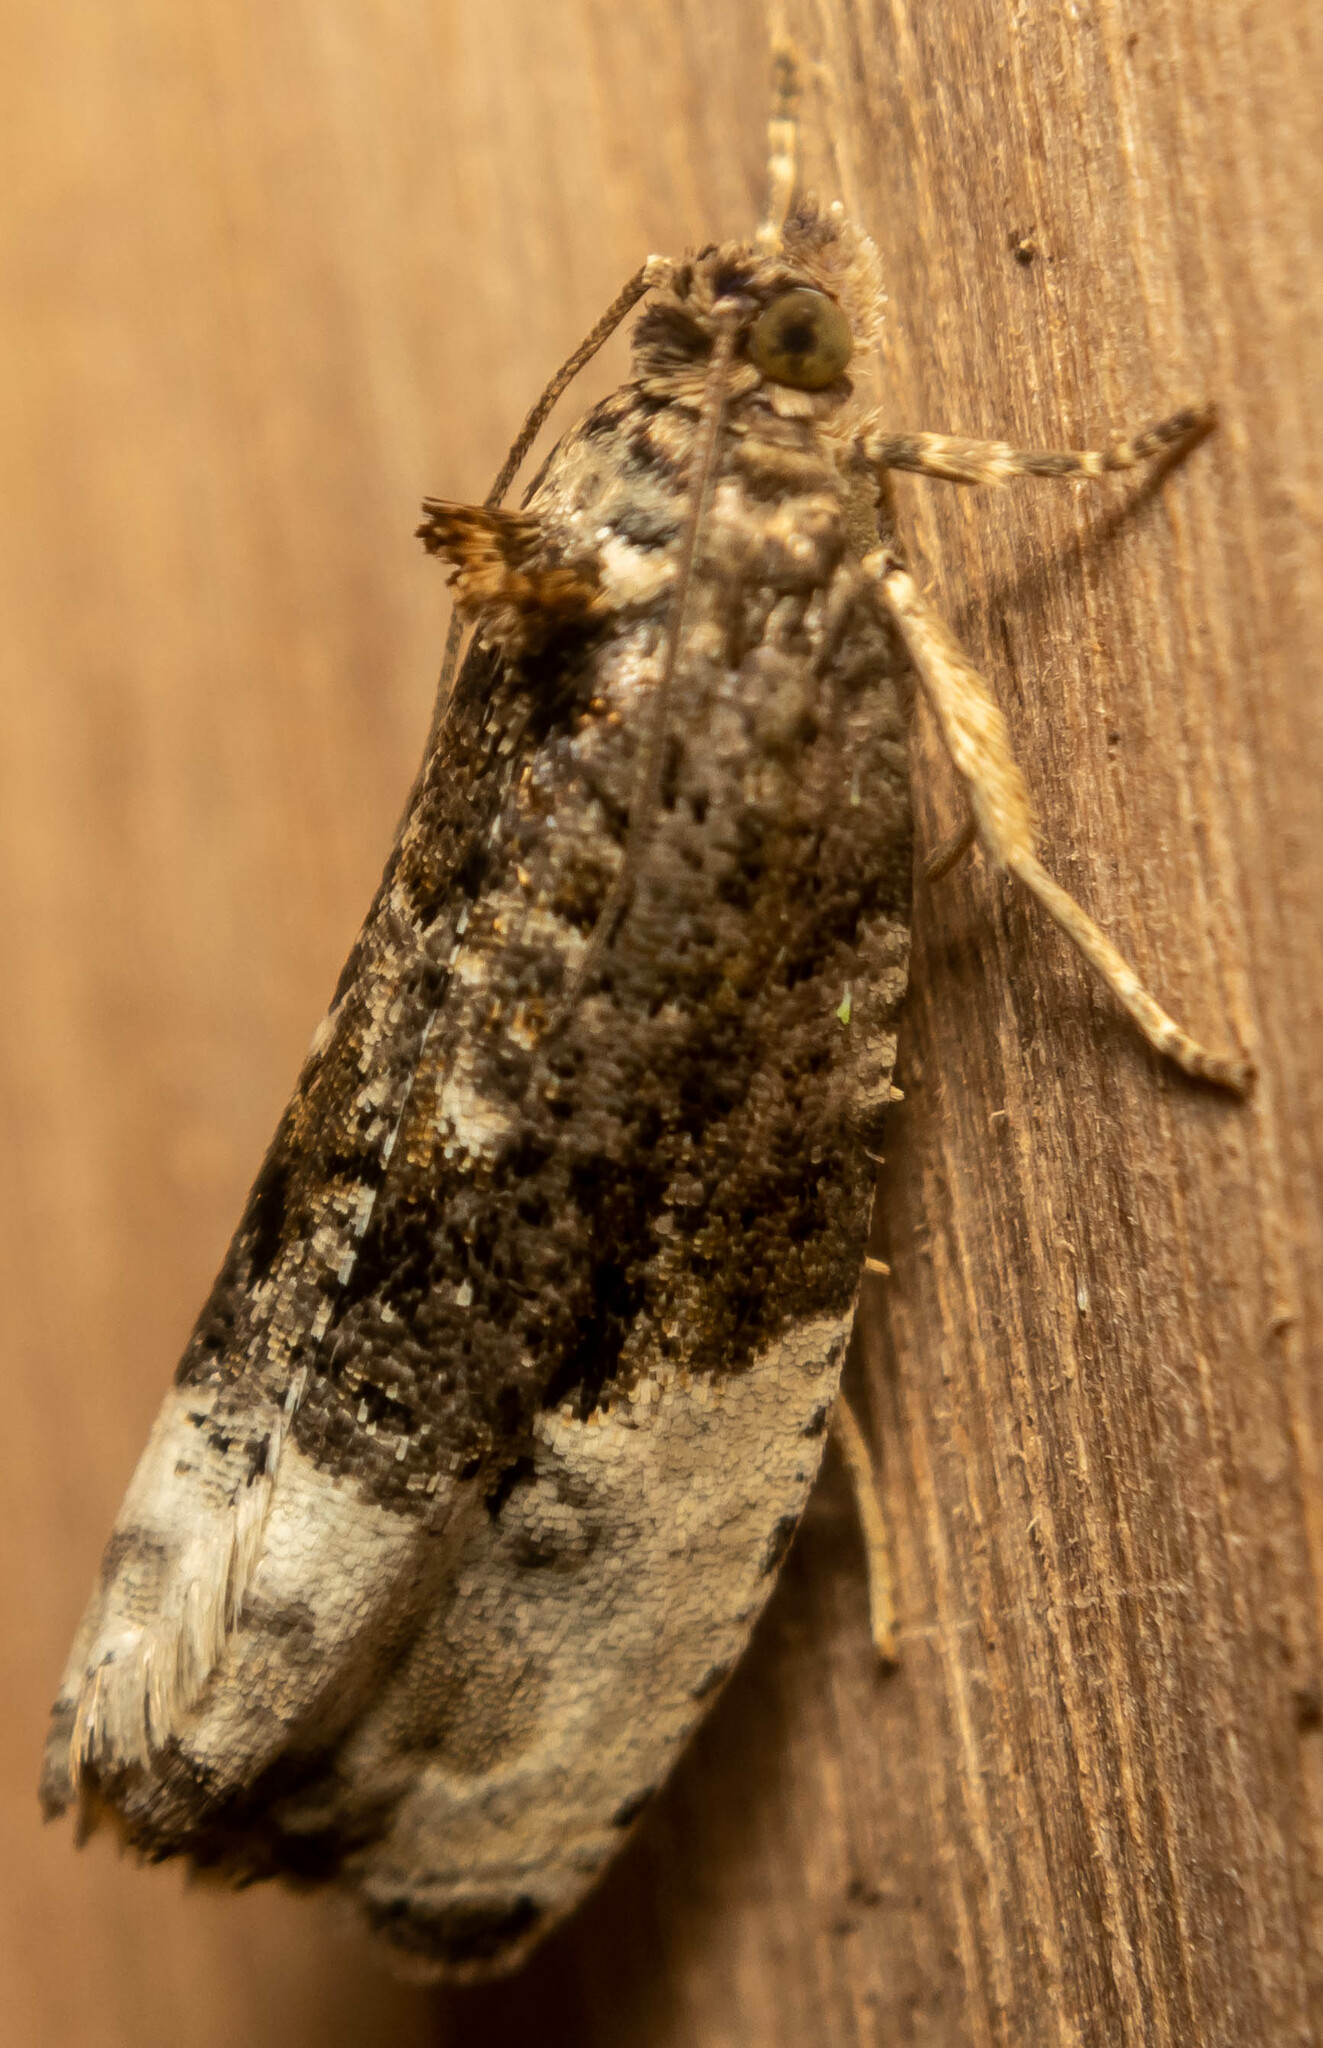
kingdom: Animalia
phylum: Arthropoda
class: Insecta
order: Lepidoptera
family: Tortricidae
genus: Hedya
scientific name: Hedya nubiferana
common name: Marbled orchard tortrix
